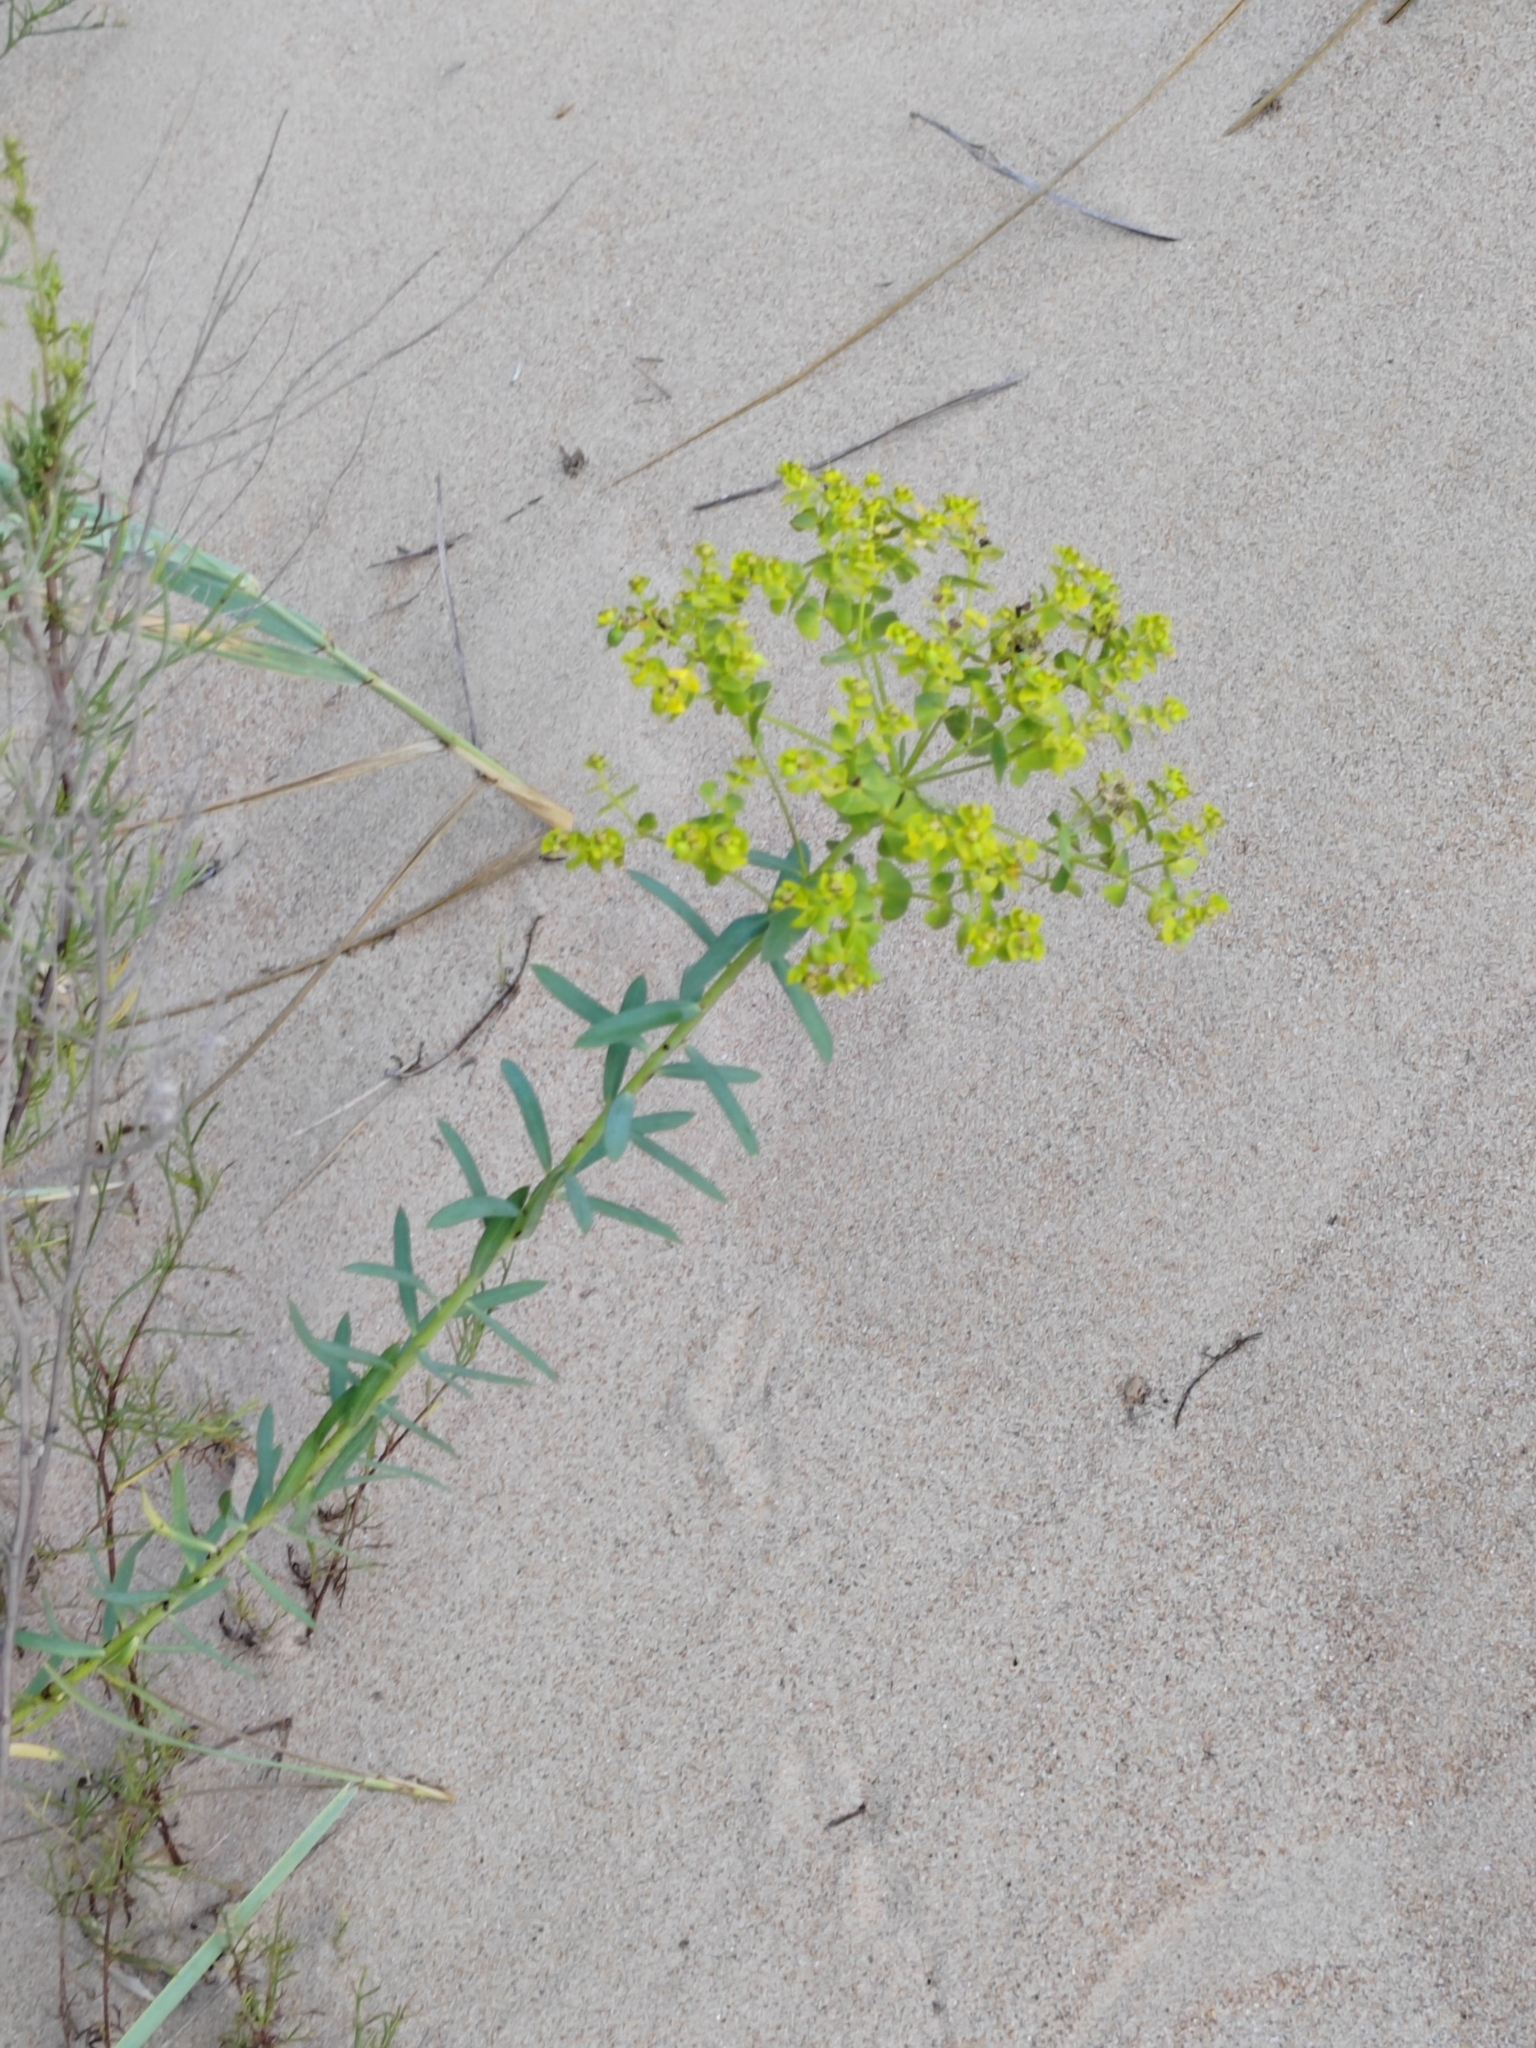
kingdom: Plantae
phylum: Tracheophyta
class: Magnoliopsida
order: Malpighiales
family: Euphorbiaceae
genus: Euphorbia
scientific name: Euphorbia seguieriana
